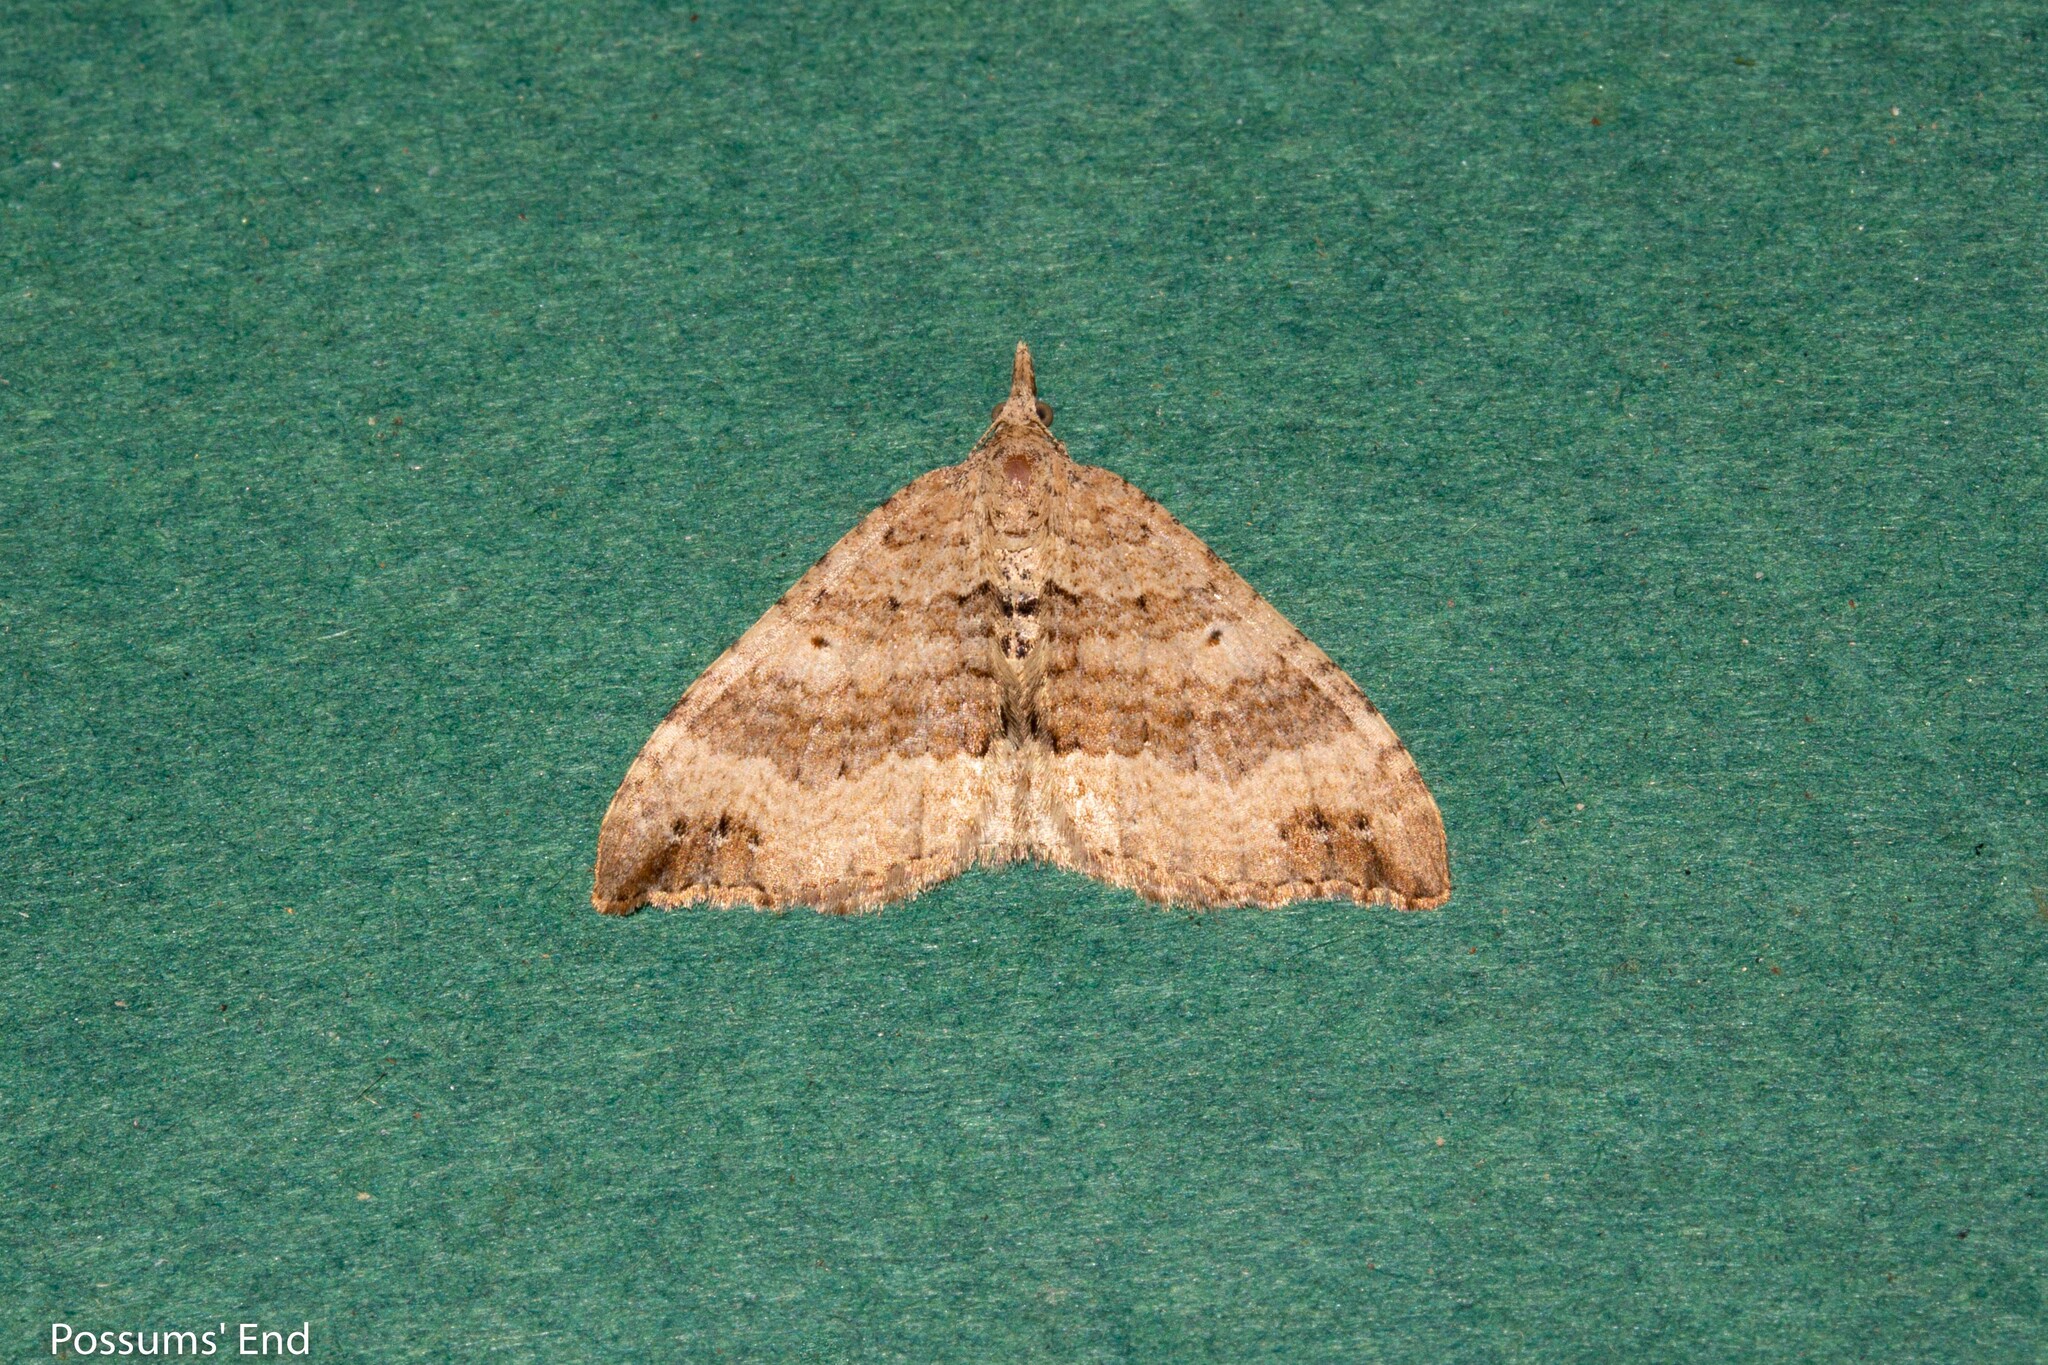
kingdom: Animalia
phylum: Arthropoda
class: Insecta
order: Lepidoptera
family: Geometridae
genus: Homodotis
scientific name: Homodotis falcata
